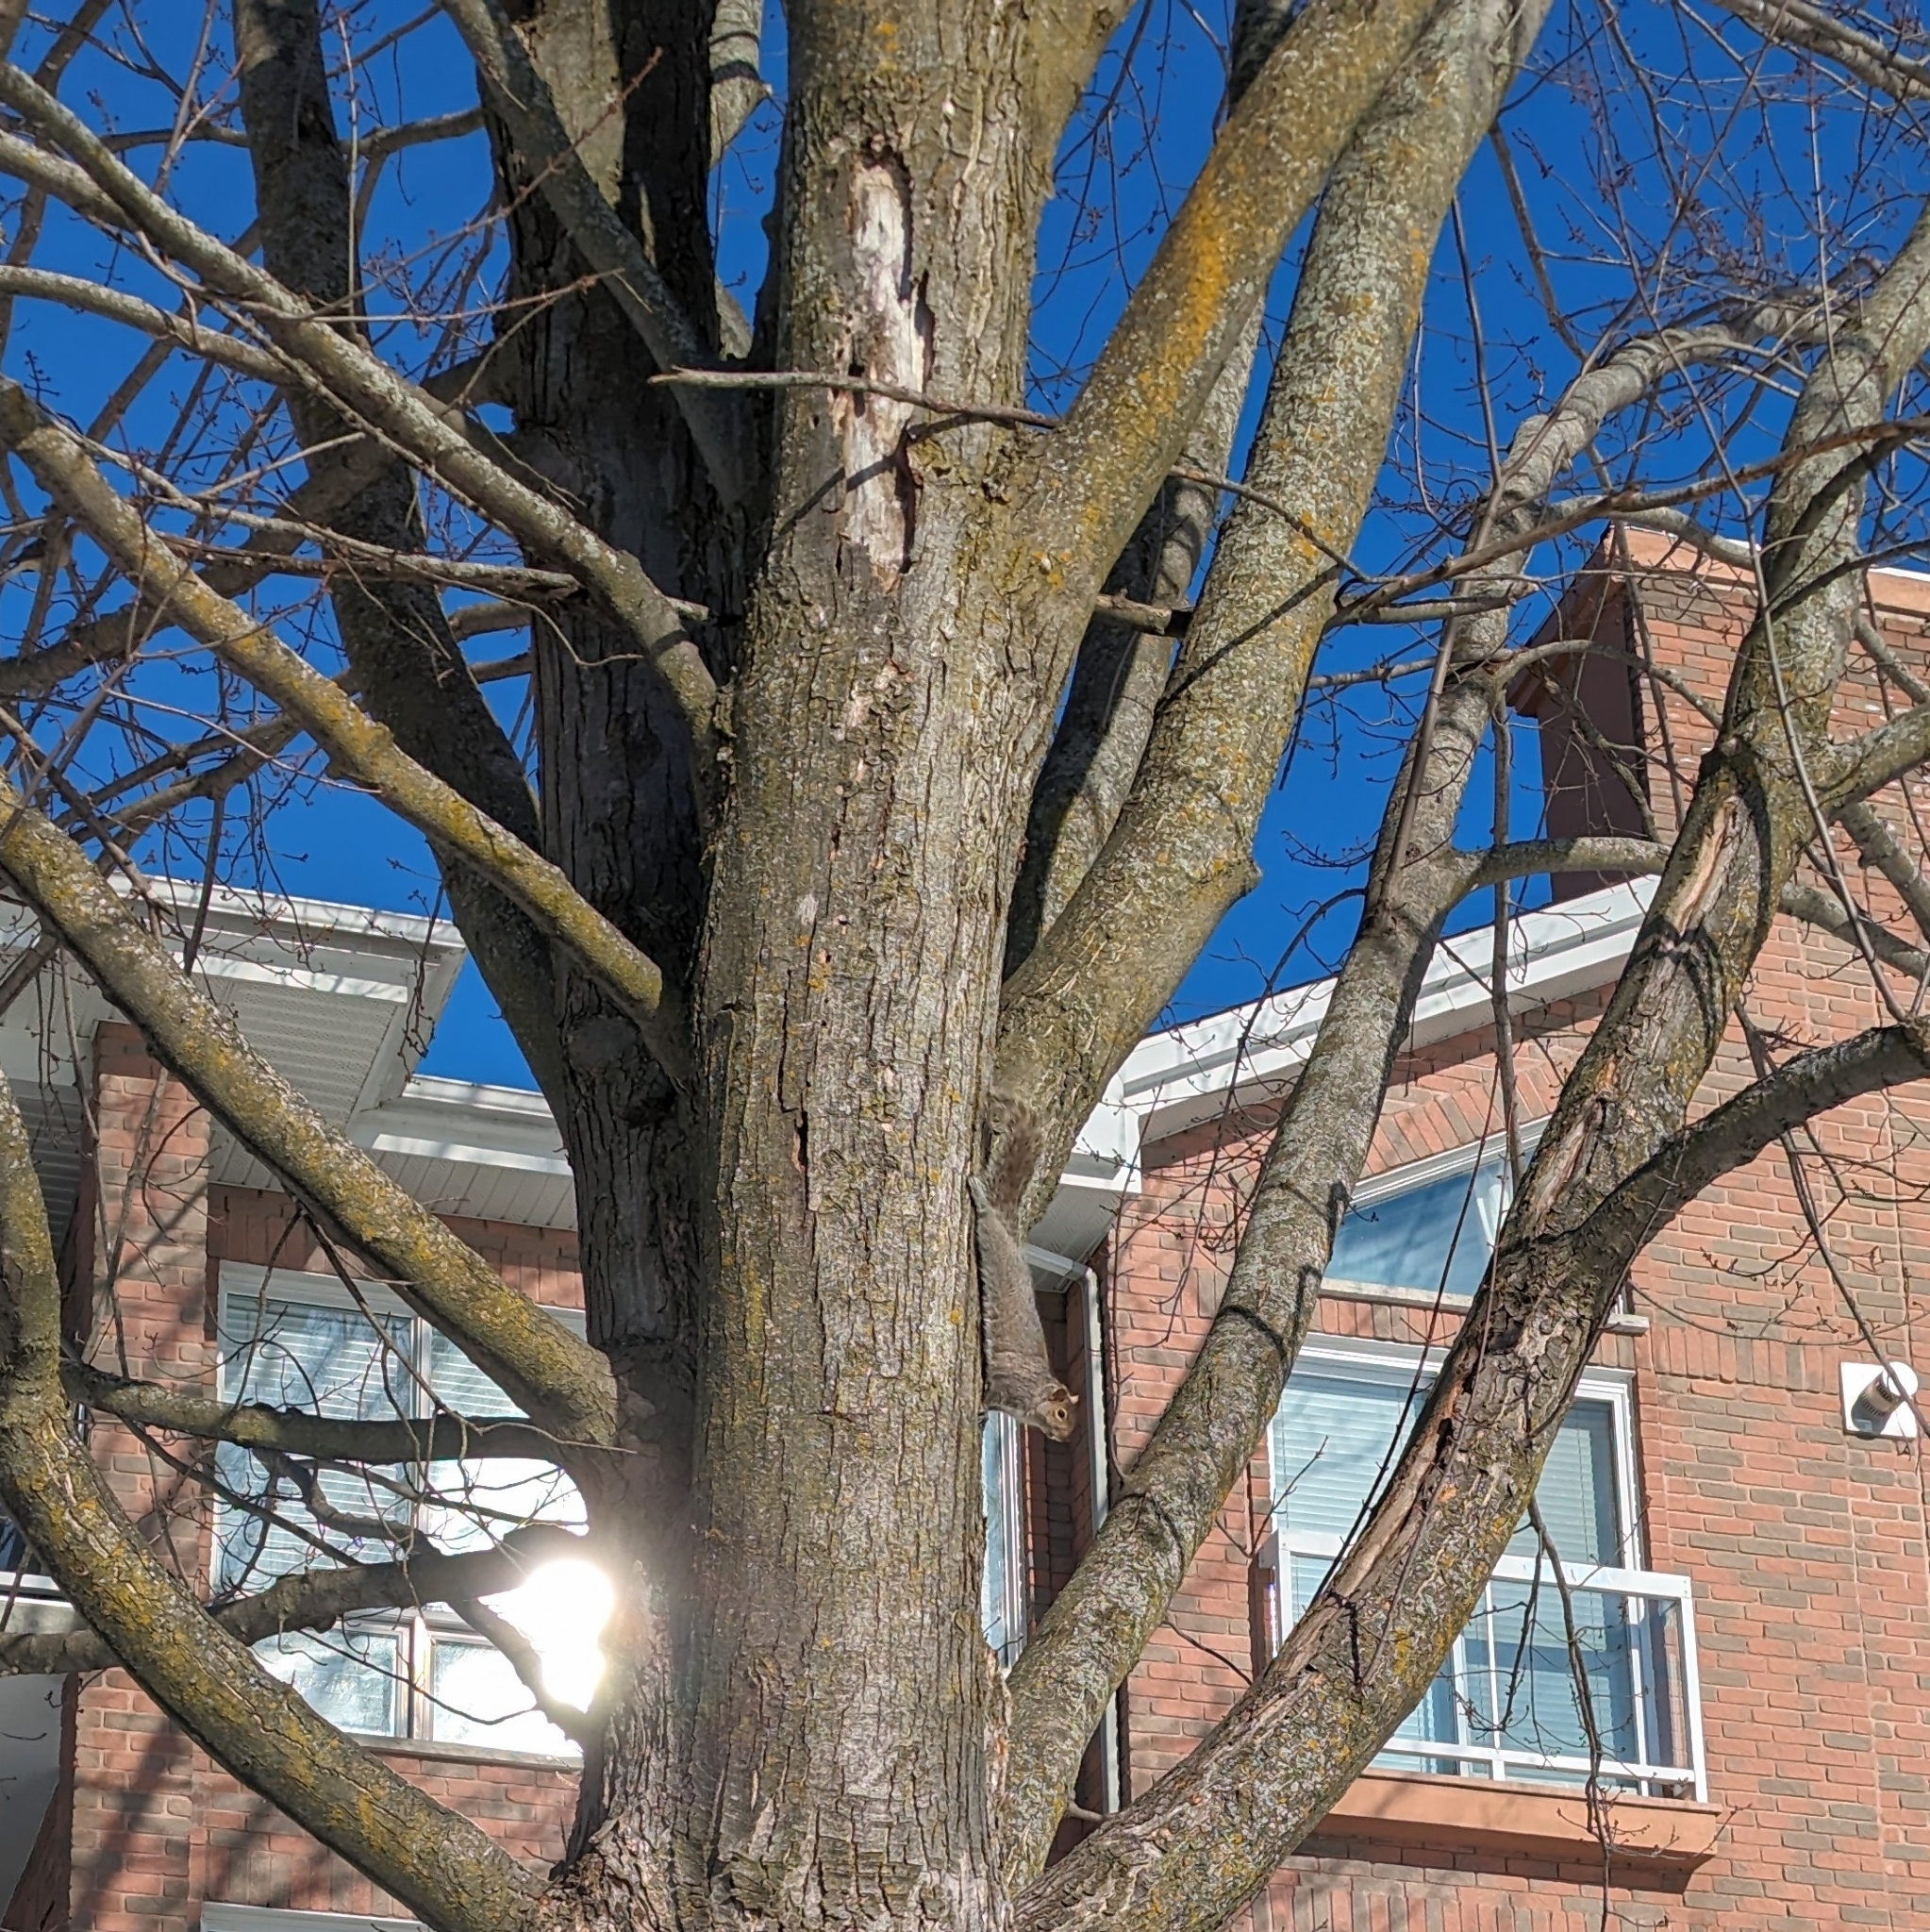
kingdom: Animalia
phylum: Chordata
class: Mammalia
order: Rodentia
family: Sciuridae
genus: Sciurus
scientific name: Sciurus carolinensis
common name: Eastern gray squirrel
